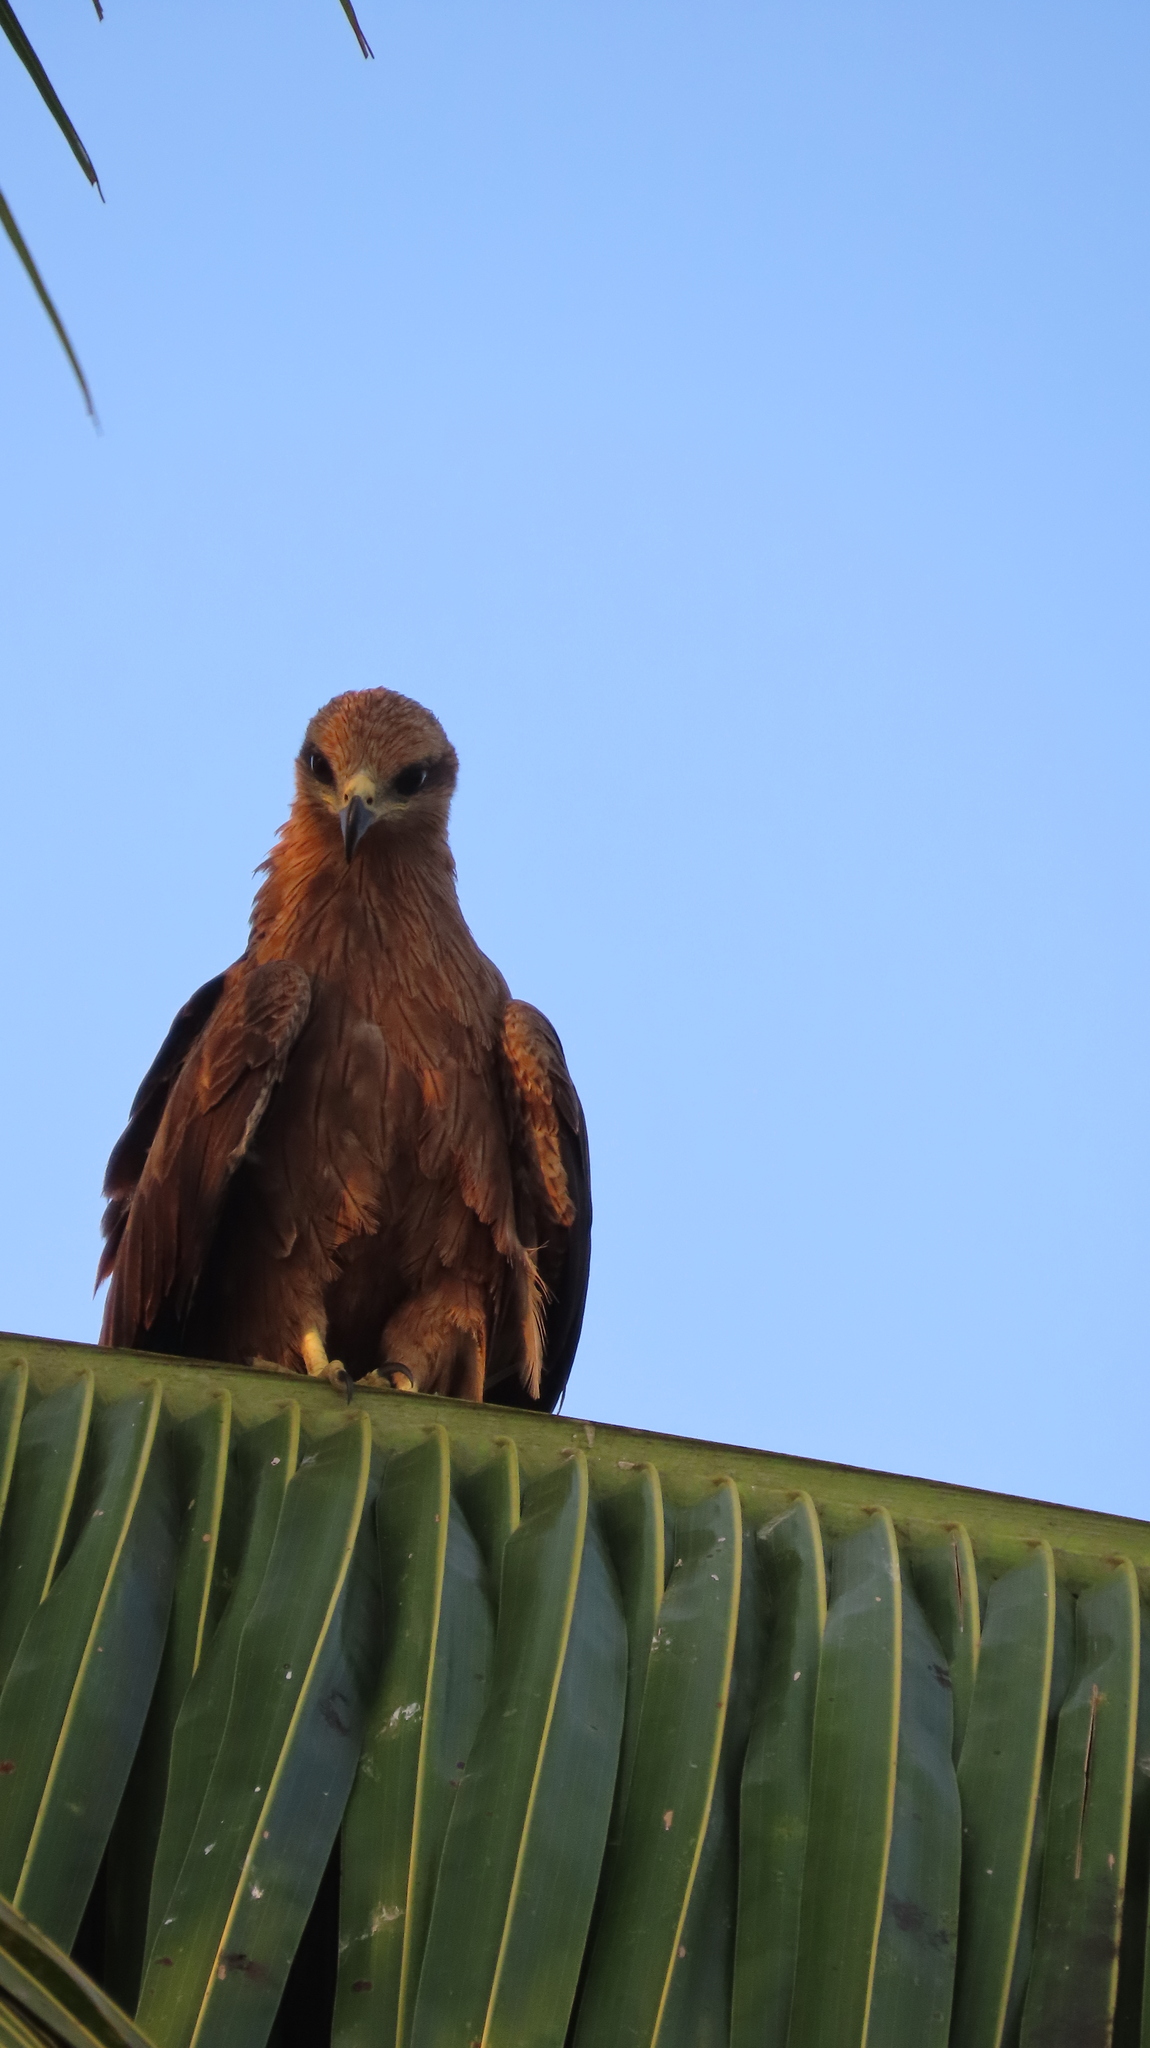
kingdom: Animalia
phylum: Chordata
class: Aves
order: Accipitriformes
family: Accipitridae
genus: Milvus
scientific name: Milvus migrans
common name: Black kite
